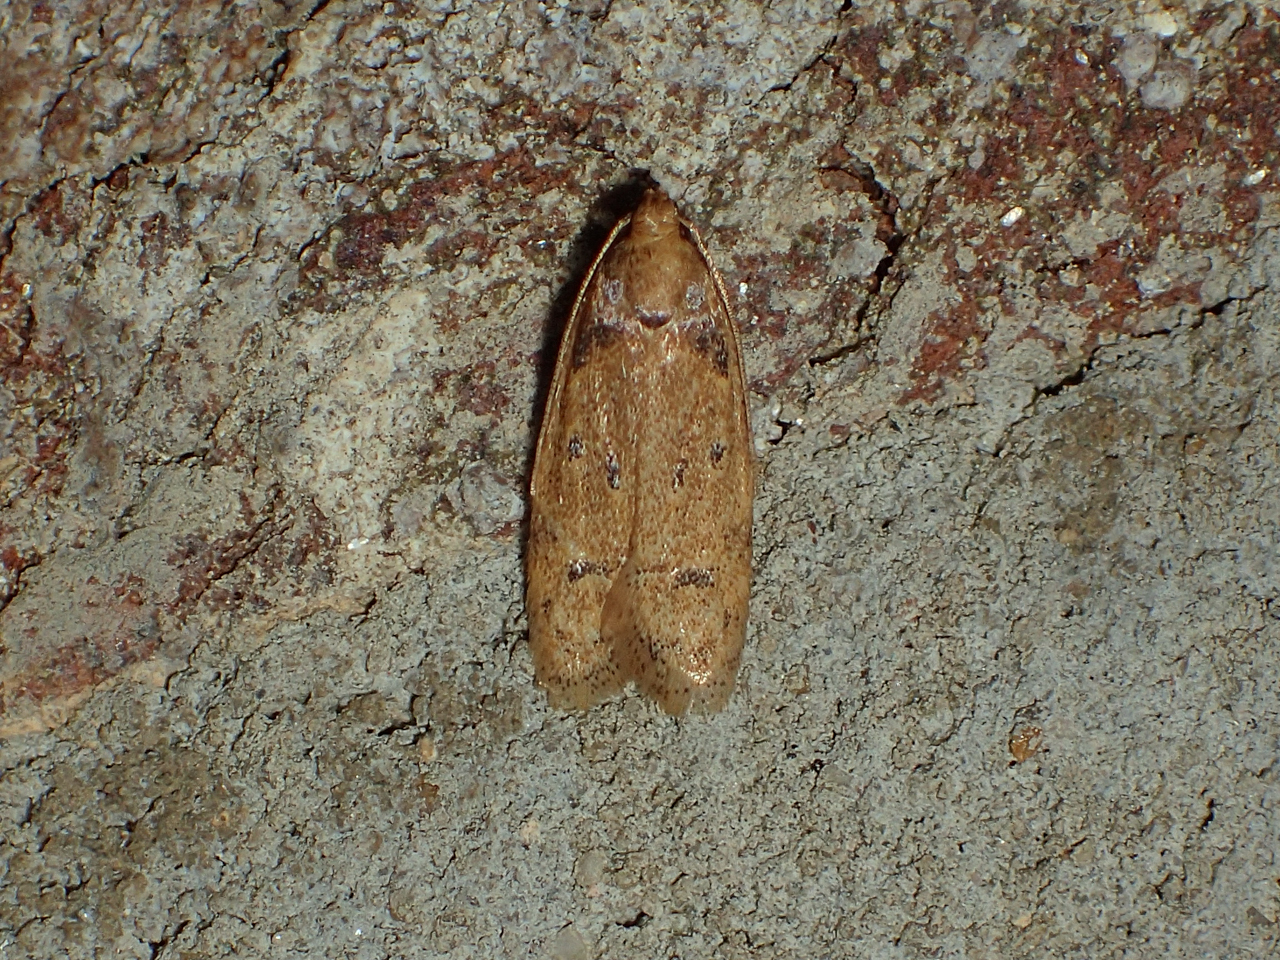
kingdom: Animalia
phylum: Arthropoda
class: Insecta
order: Lepidoptera
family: Autostichidae
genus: Gerdana
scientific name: Gerdana caritella
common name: Gerdana moth
